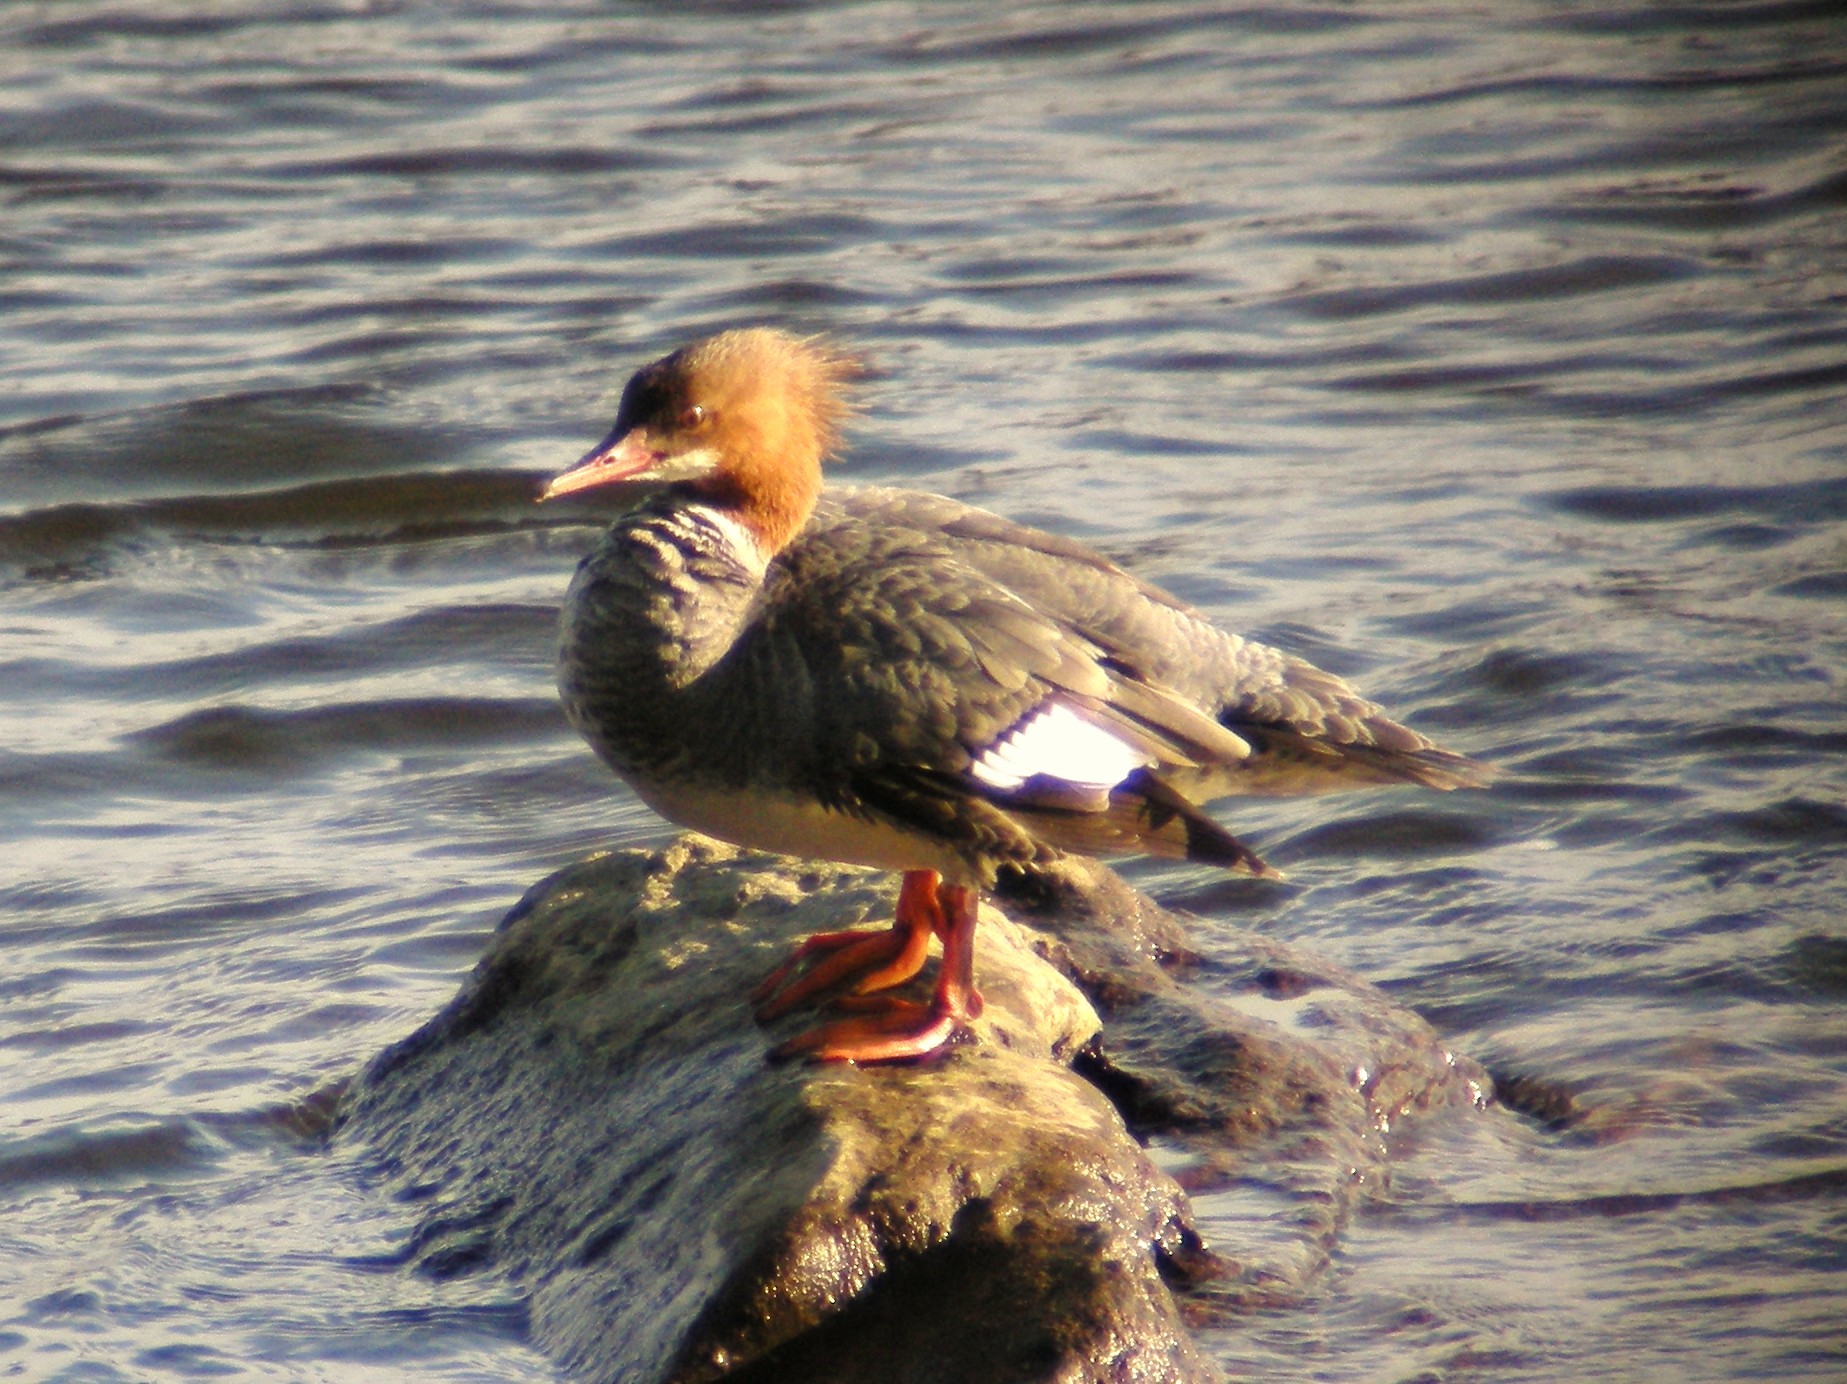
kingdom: Animalia
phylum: Chordata
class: Aves
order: Anseriformes
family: Anatidae
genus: Mergus
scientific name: Mergus merganser
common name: Common merganser
